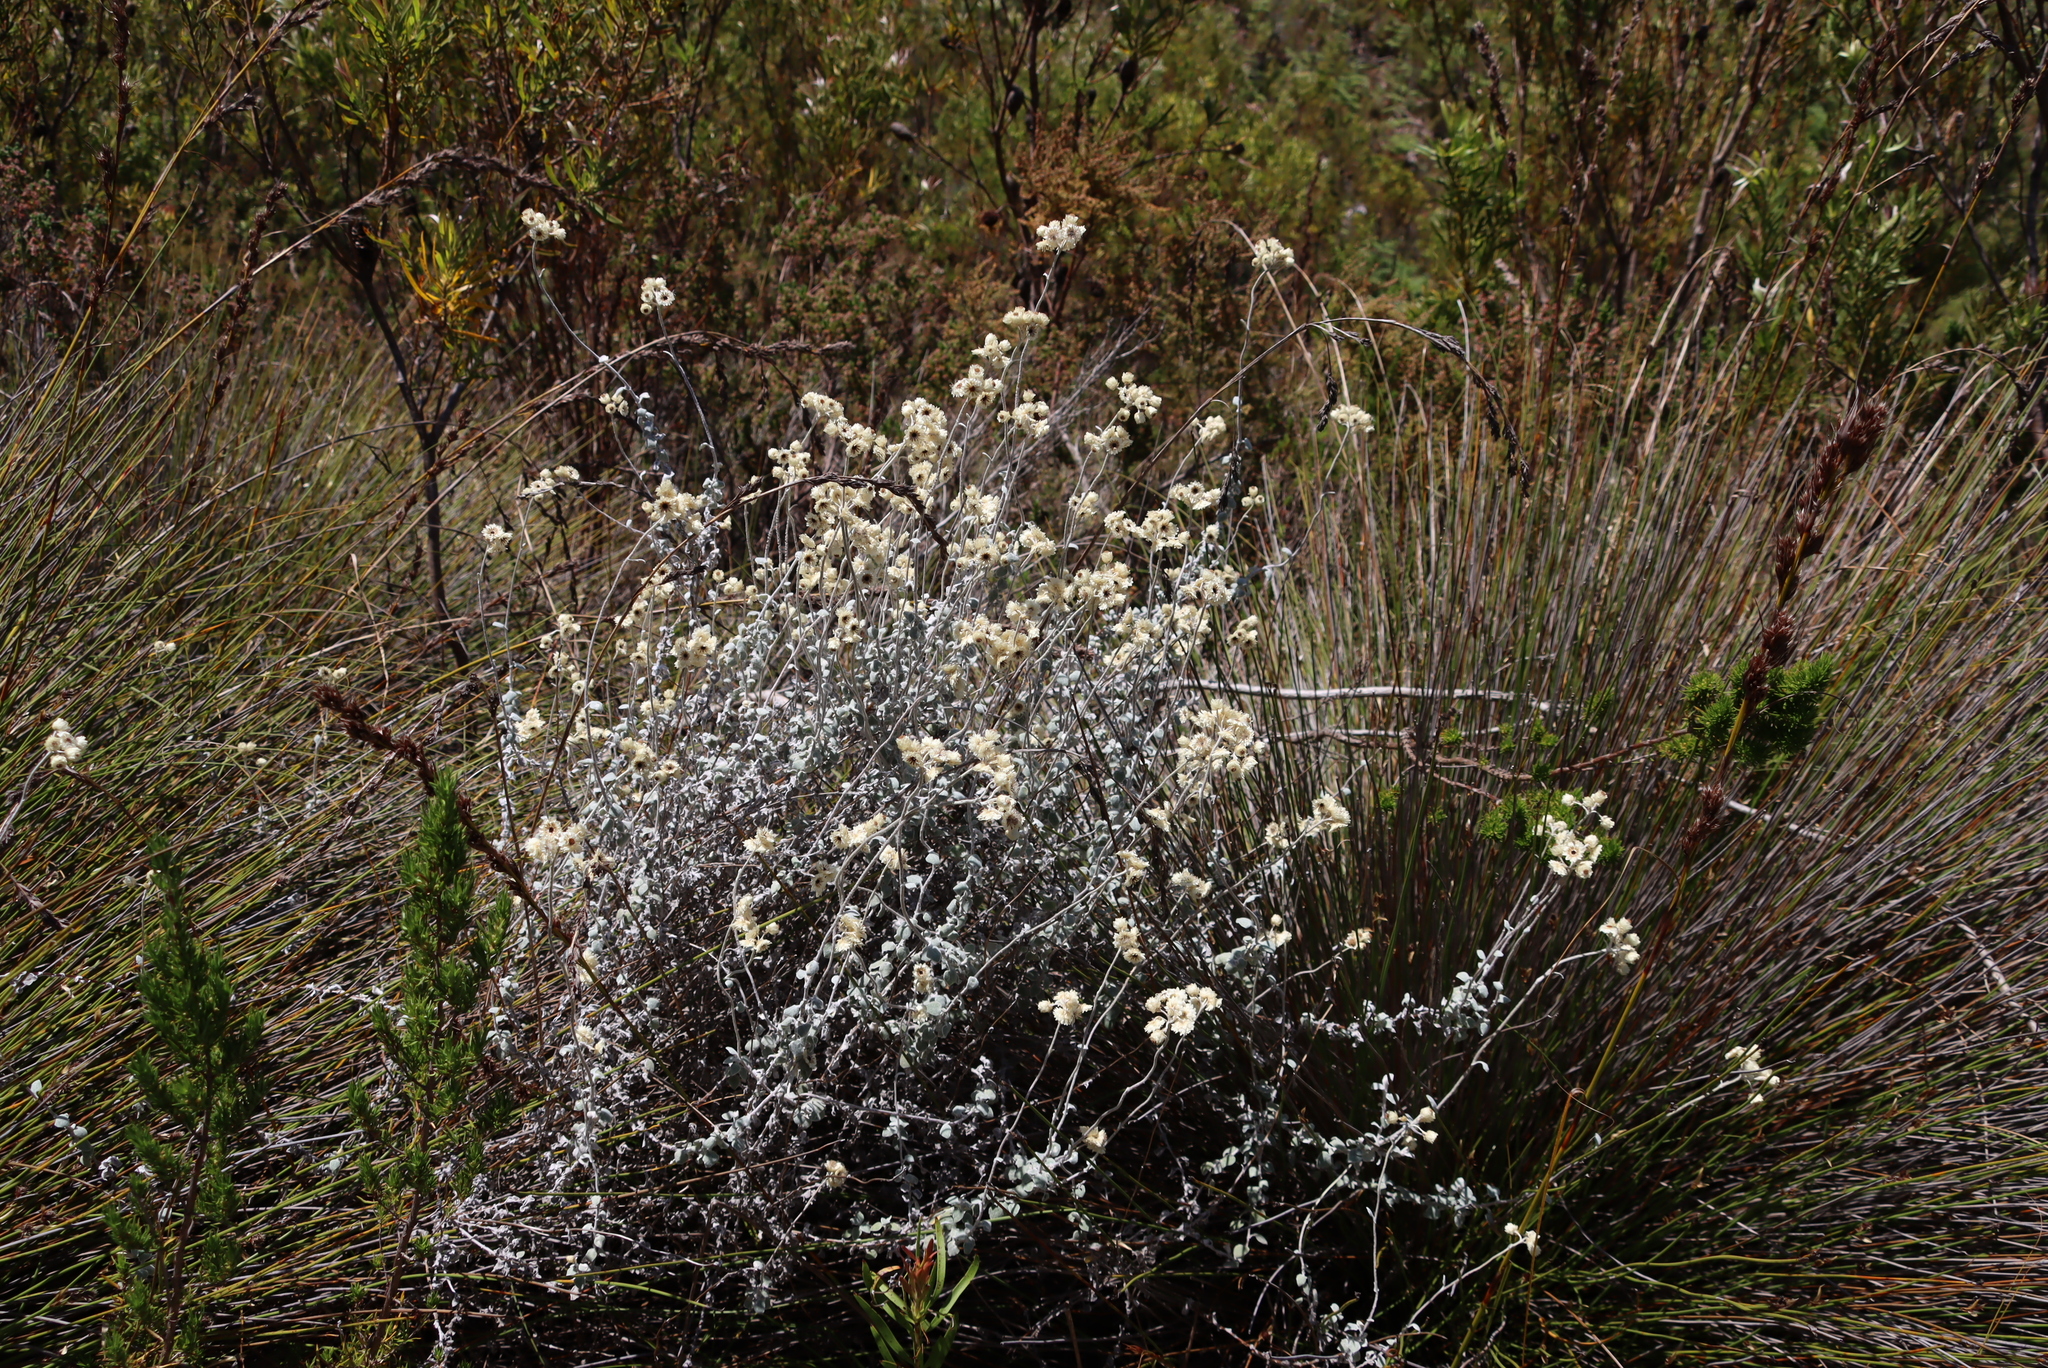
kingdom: Plantae
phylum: Tracheophyta
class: Magnoliopsida
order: Asterales
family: Asteraceae
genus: Helichrysum
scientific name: Helichrysum pandurifolium
